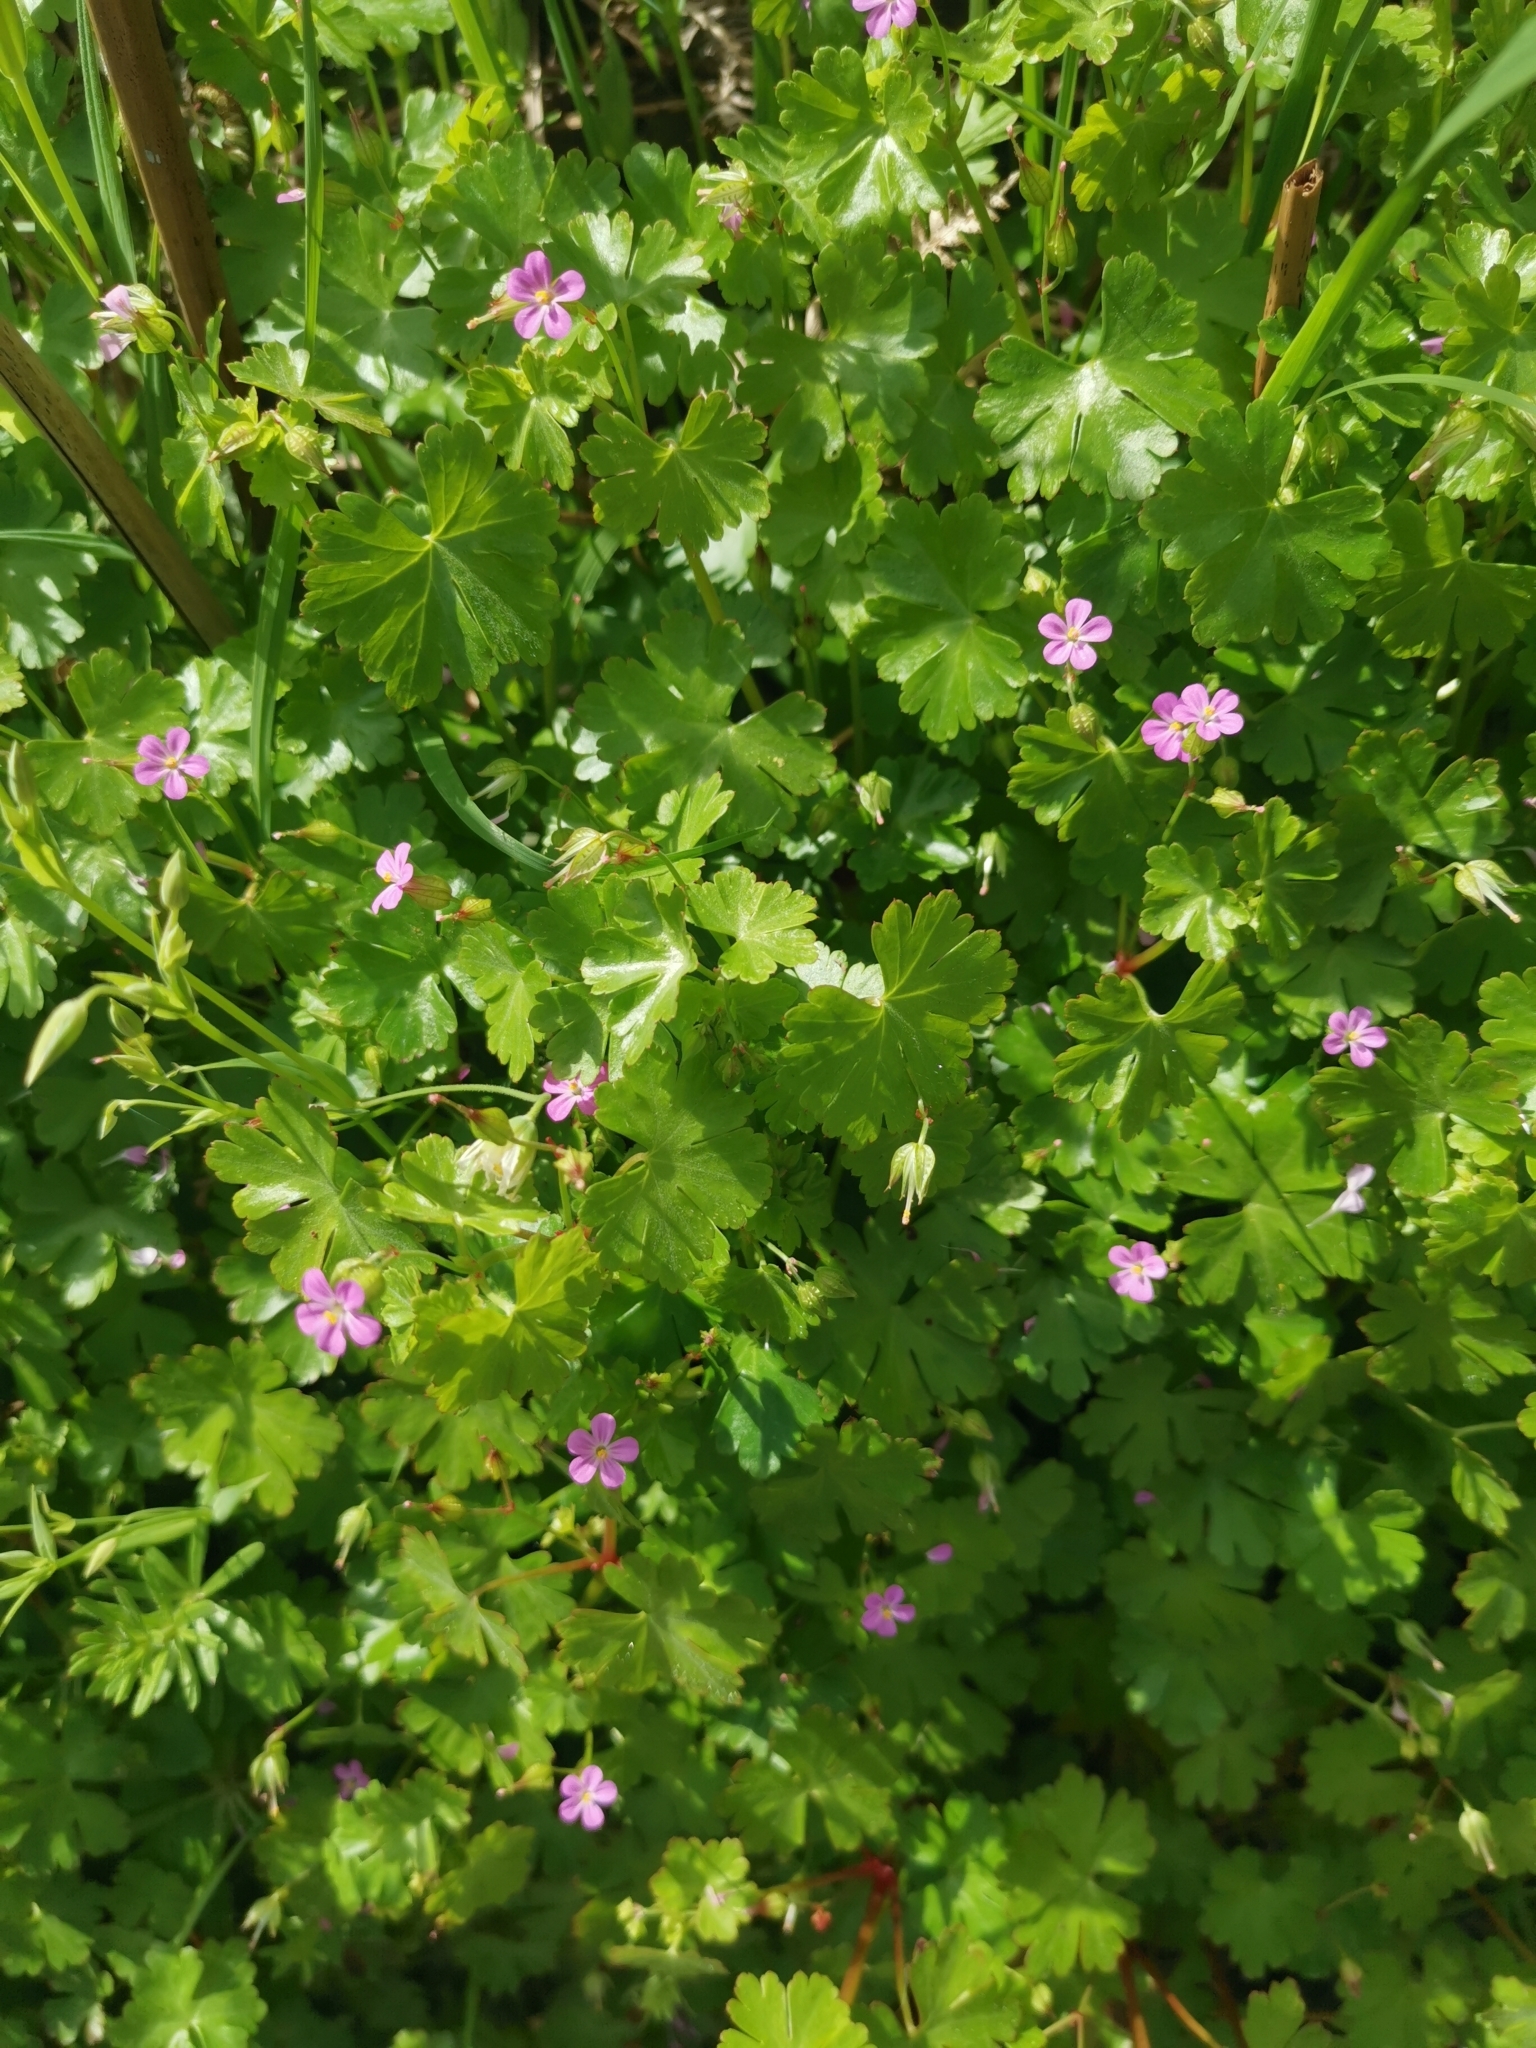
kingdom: Plantae
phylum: Tracheophyta
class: Magnoliopsida
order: Geraniales
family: Geraniaceae
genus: Geranium
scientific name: Geranium lucidum
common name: Shining crane's-bill
